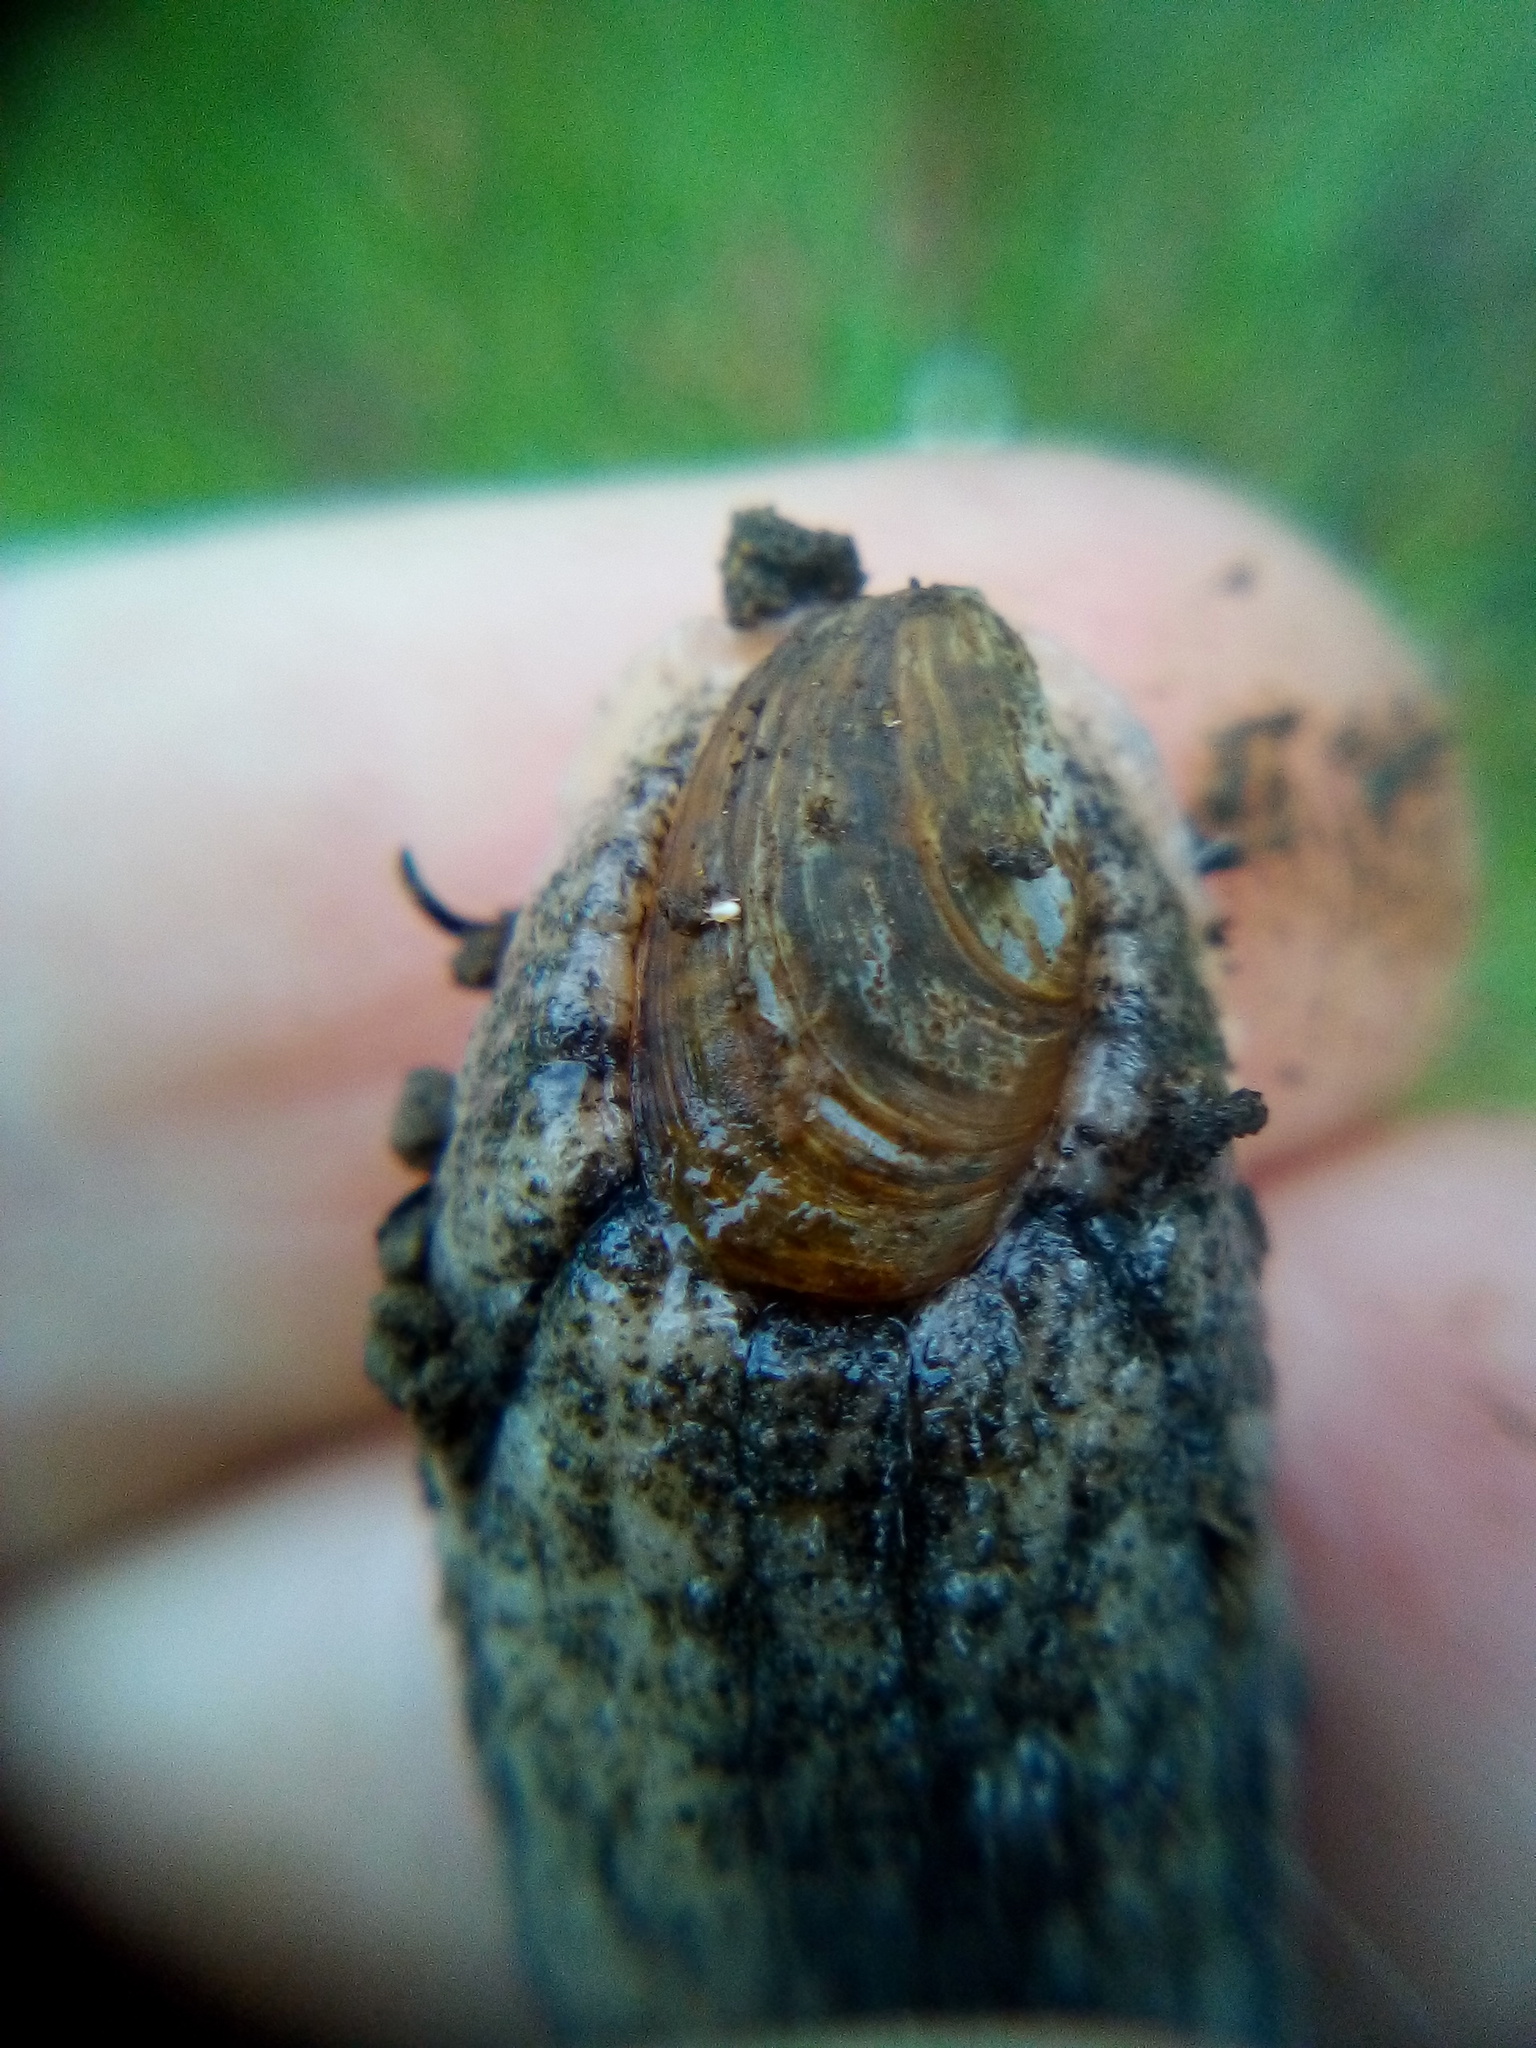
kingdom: Animalia
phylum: Mollusca
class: Gastropoda
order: Stylommatophora
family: Testacellidae
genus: Testacella
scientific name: Testacella maugei
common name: Mauge's slug
